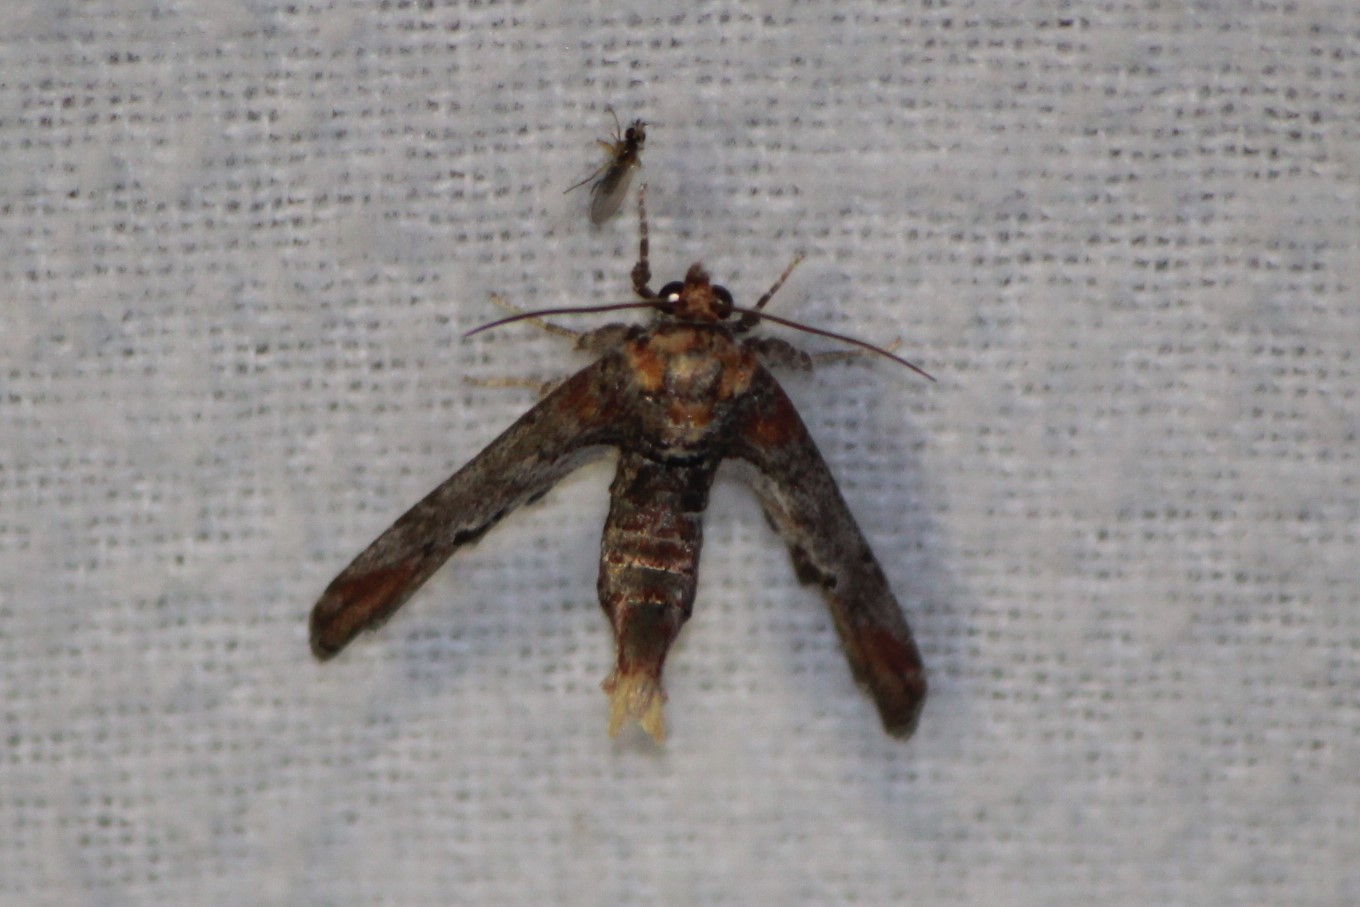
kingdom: Animalia
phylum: Arthropoda
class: Insecta
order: Lepidoptera
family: Euteliidae
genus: Marathyssa
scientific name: Marathyssa inficita
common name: Dark marathyssa moth
